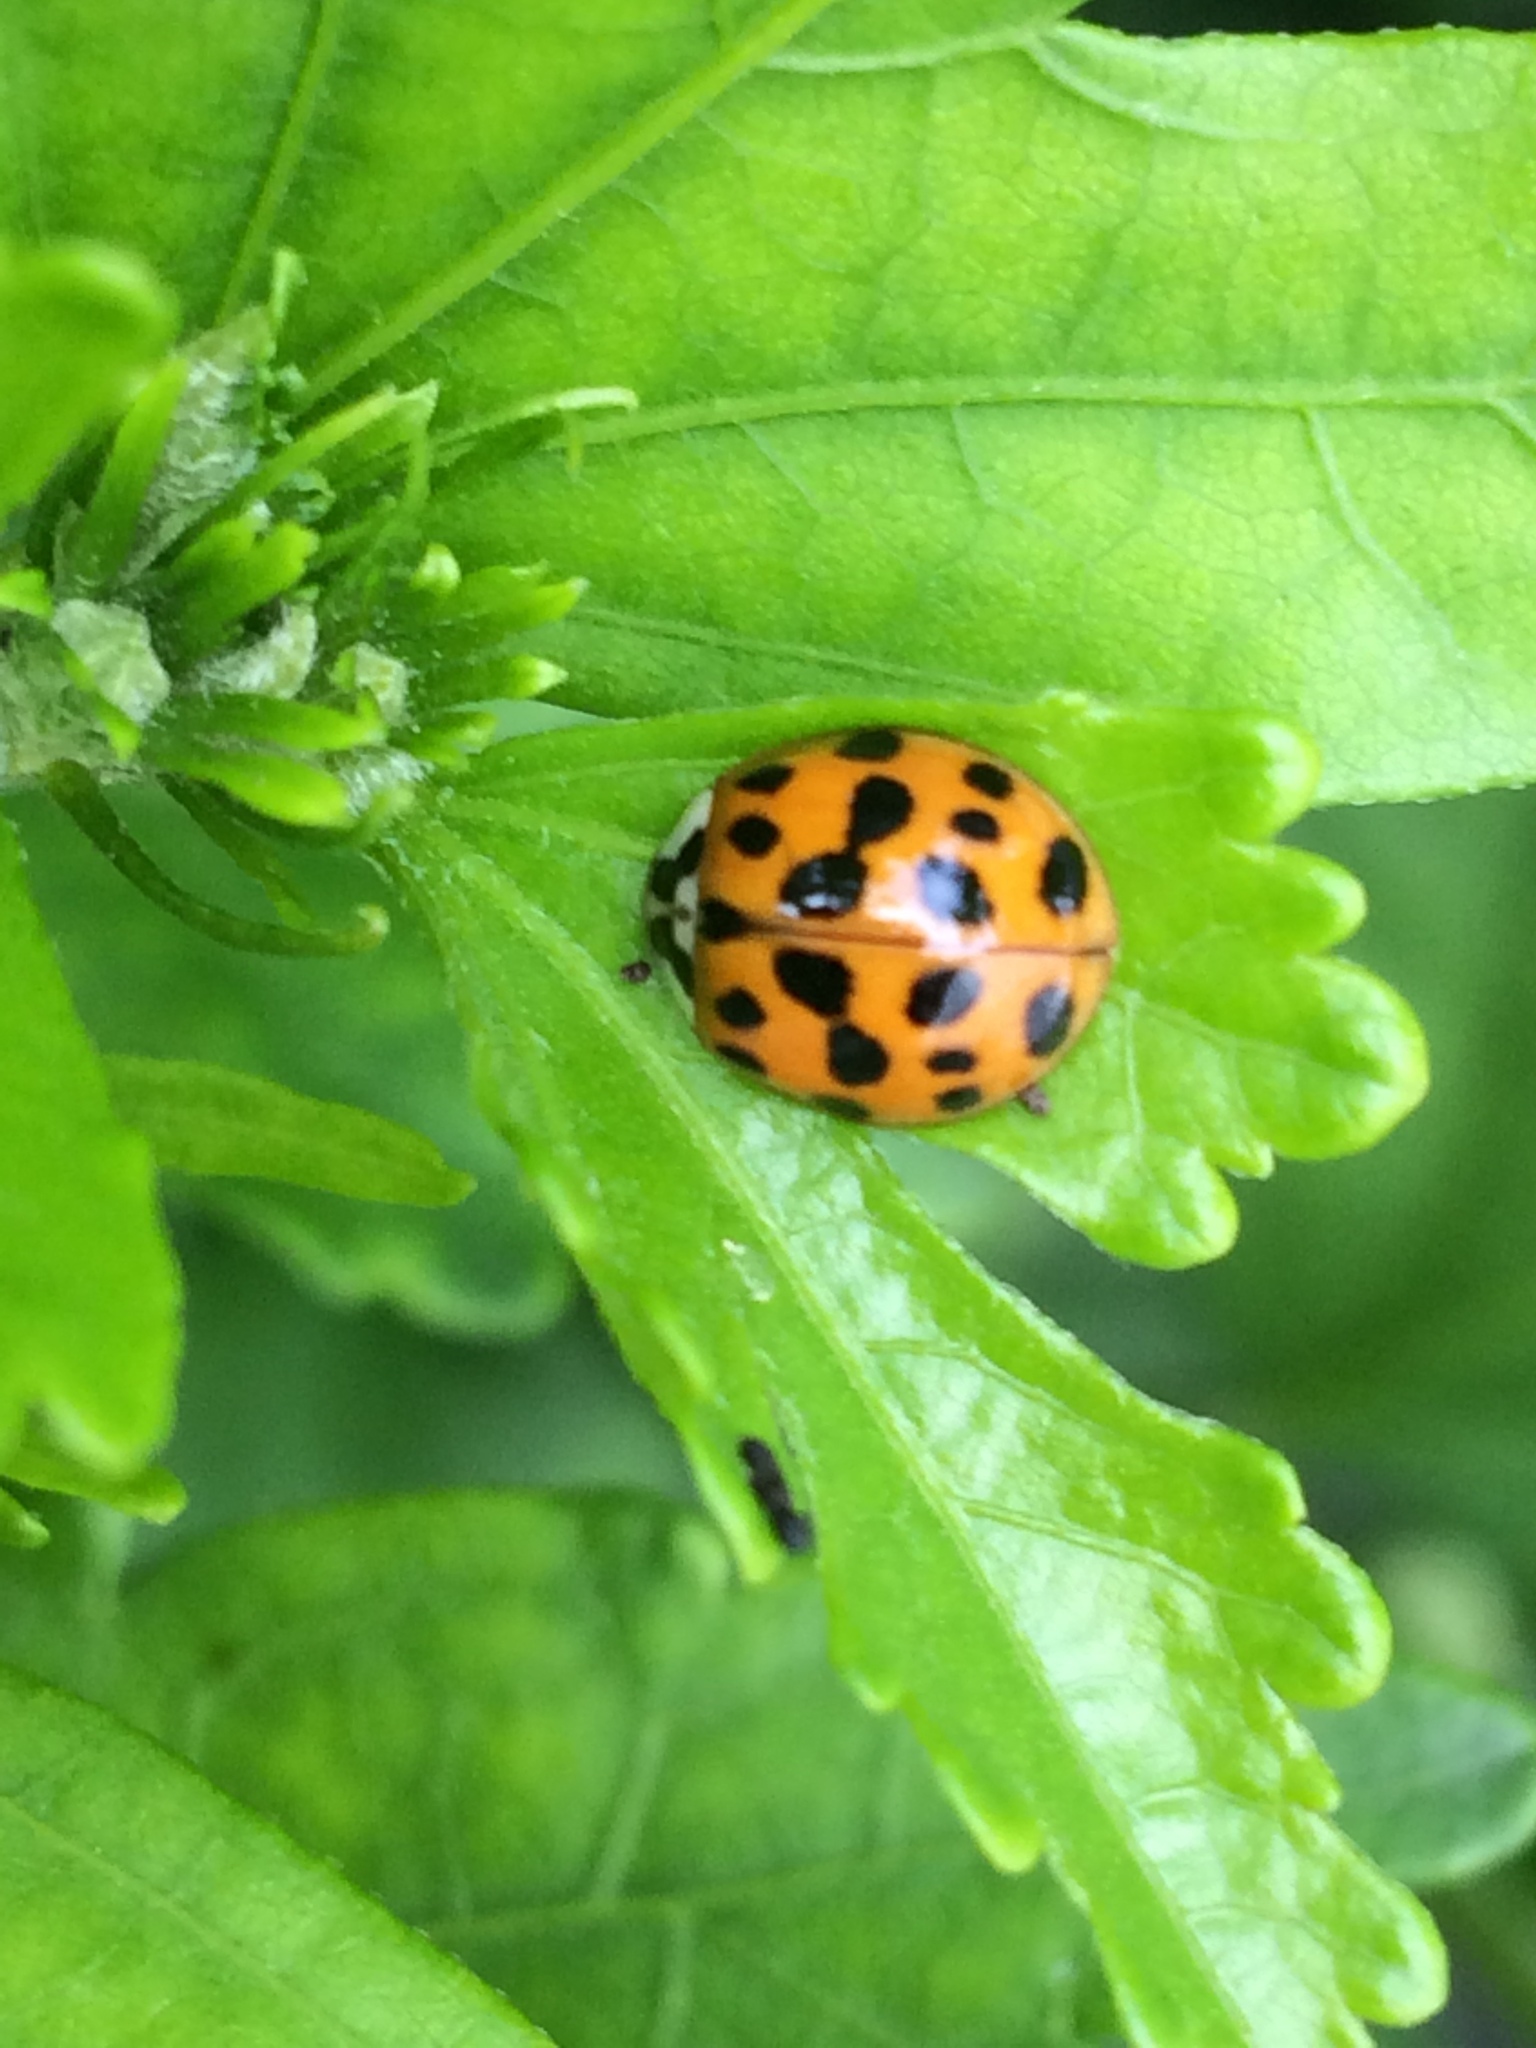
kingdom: Animalia
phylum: Arthropoda
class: Insecta
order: Coleoptera
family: Coccinellidae
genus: Harmonia
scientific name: Harmonia axyridis
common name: Harlequin ladybird
